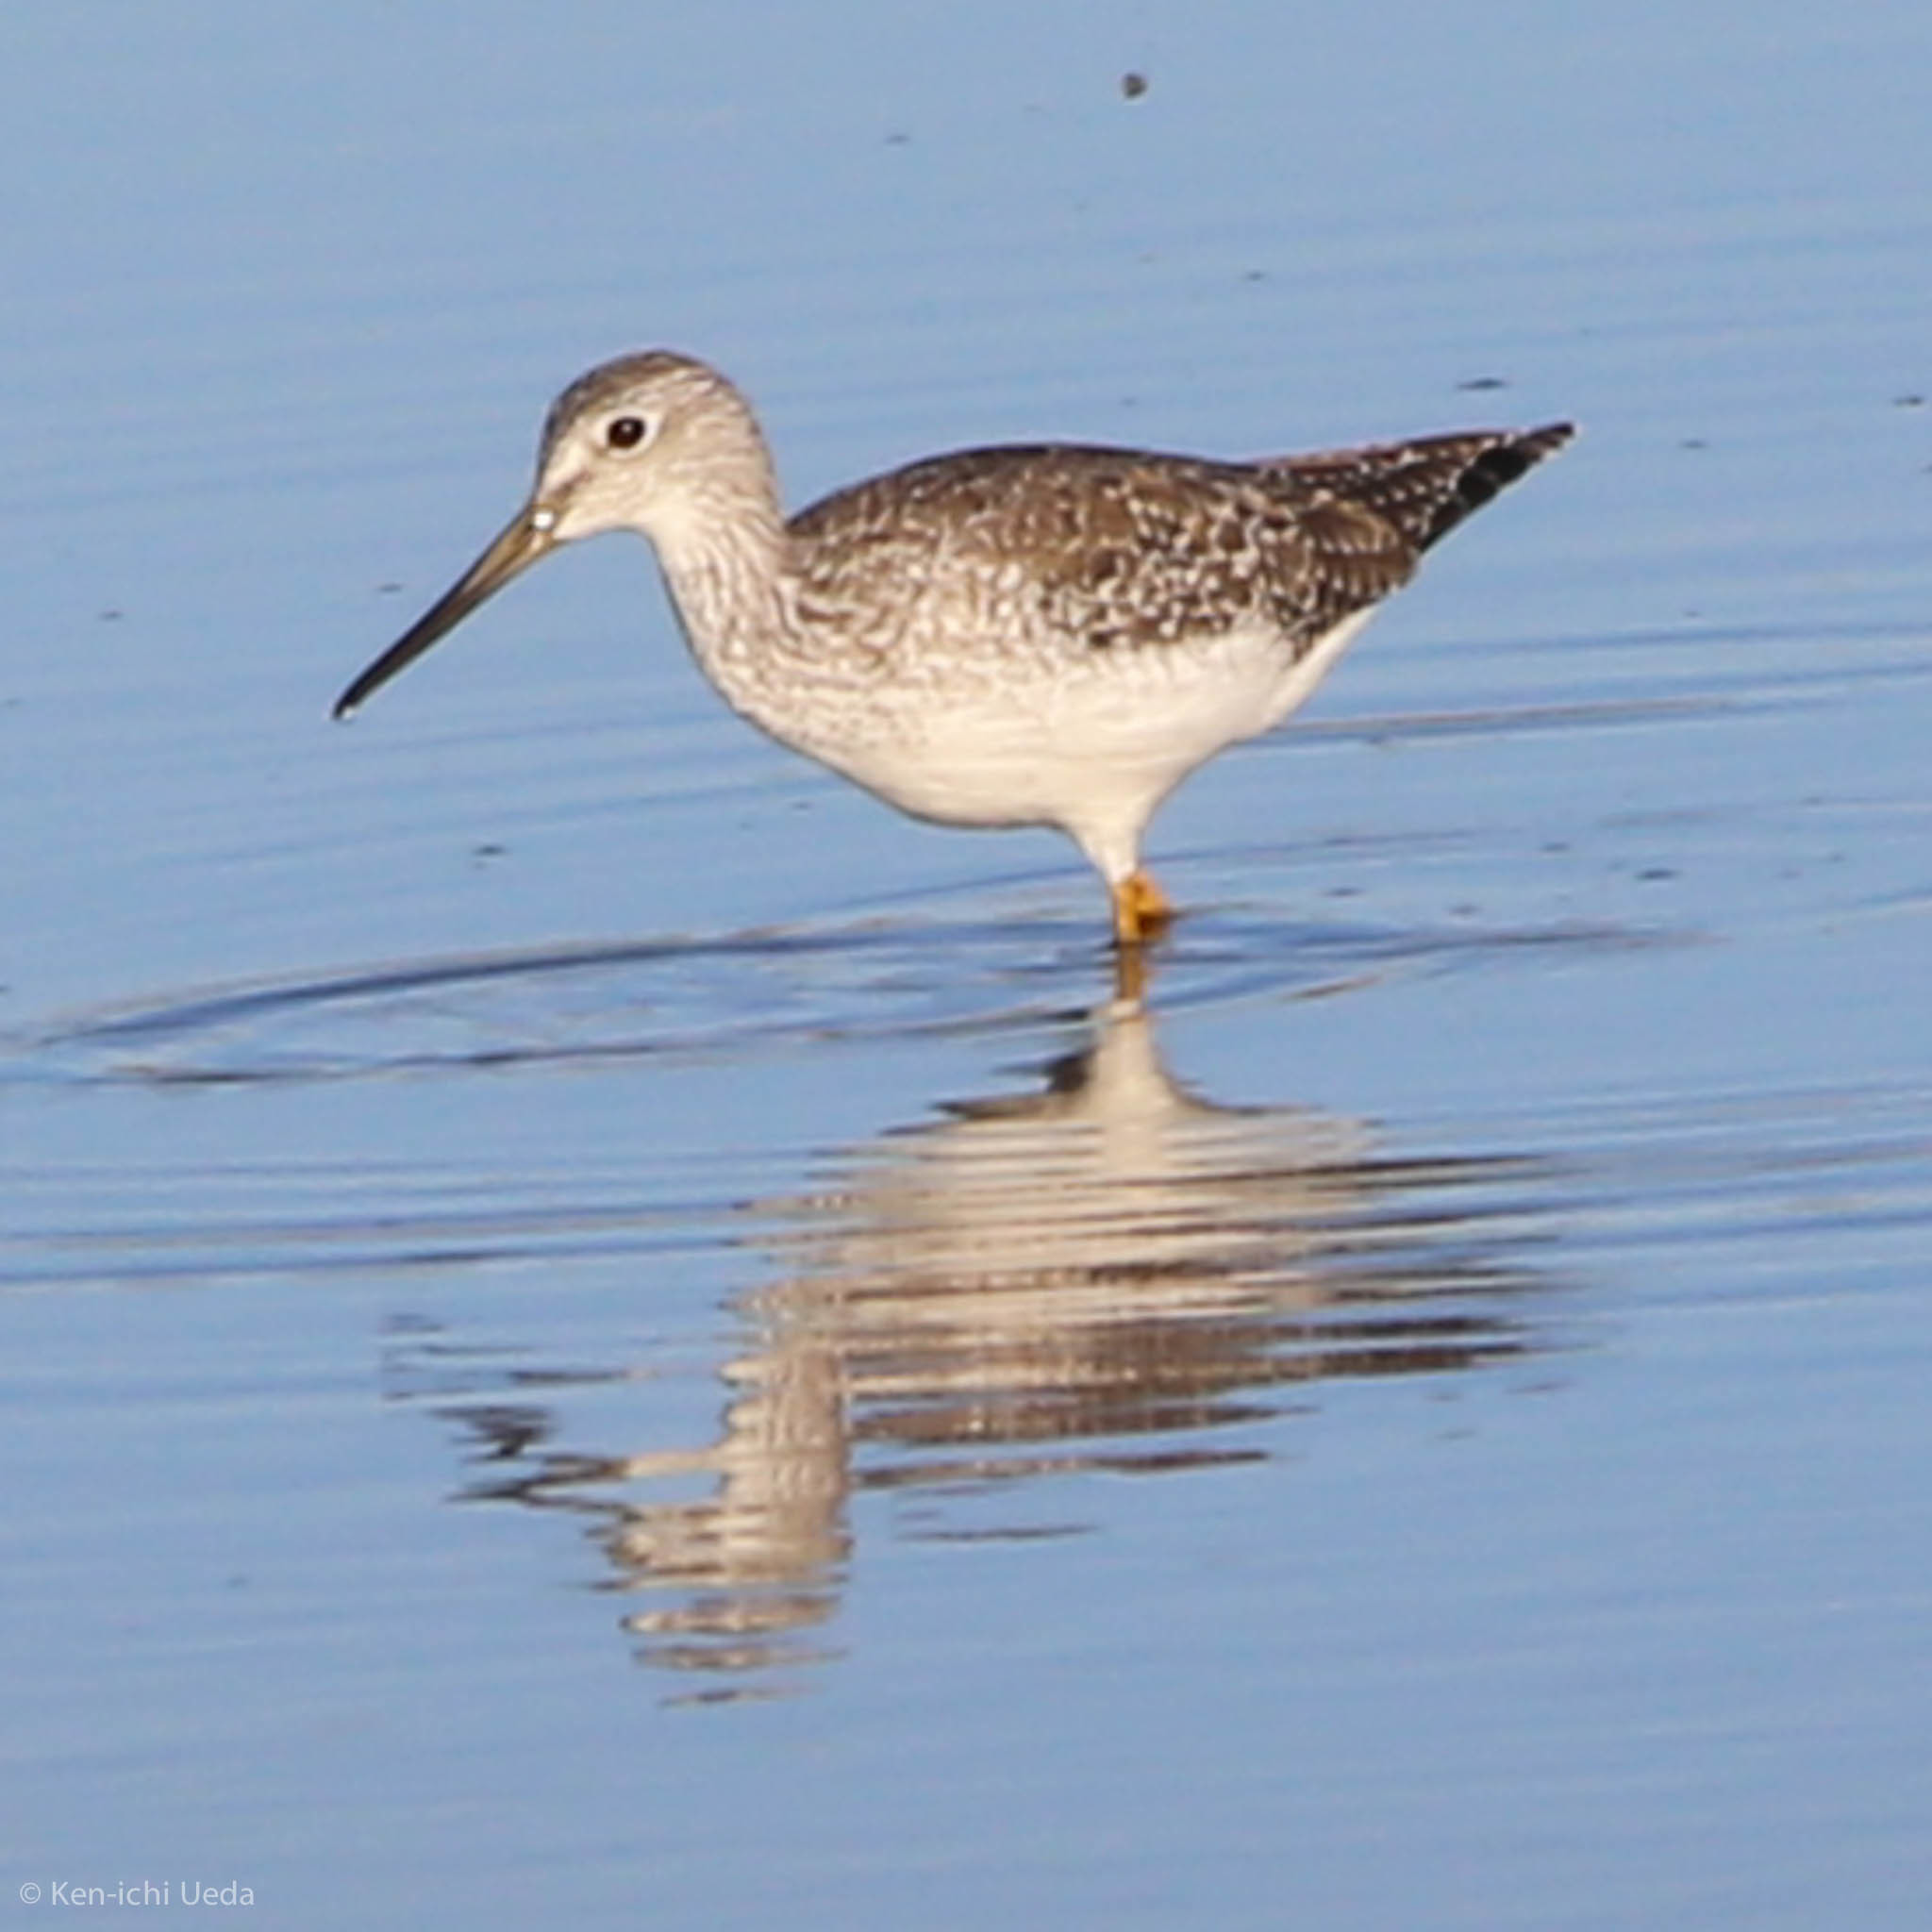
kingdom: Animalia
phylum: Chordata
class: Aves
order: Charadriiformes
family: Scolopacidae
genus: Tringa
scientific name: Tringa melanoleuca
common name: Greater yellowlegs
